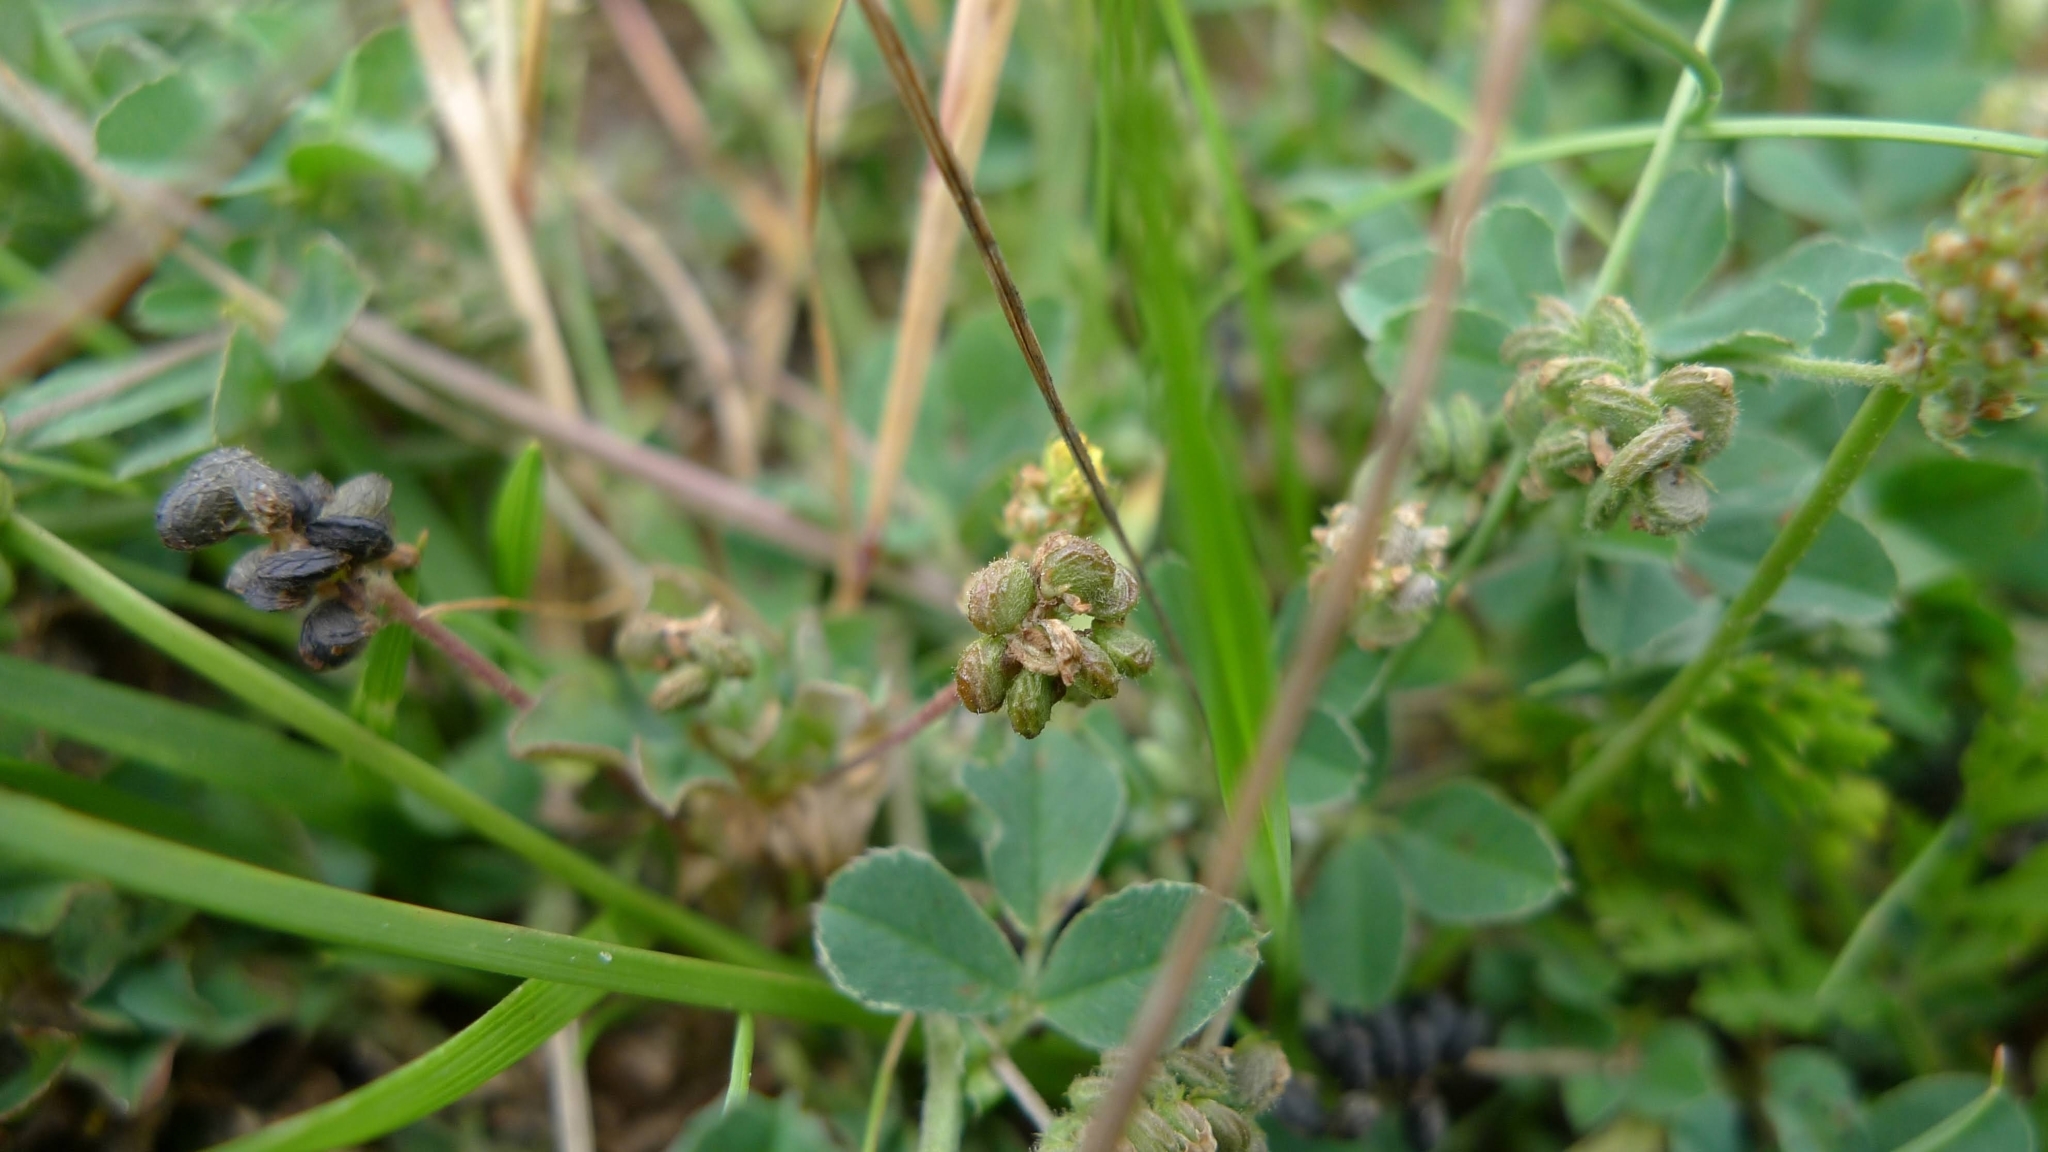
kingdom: Plantae
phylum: Tracheophyta
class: Magnoliopsida
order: Fabales
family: Fabaceae
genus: Medicago
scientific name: Medicago lupulina
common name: Black medick
